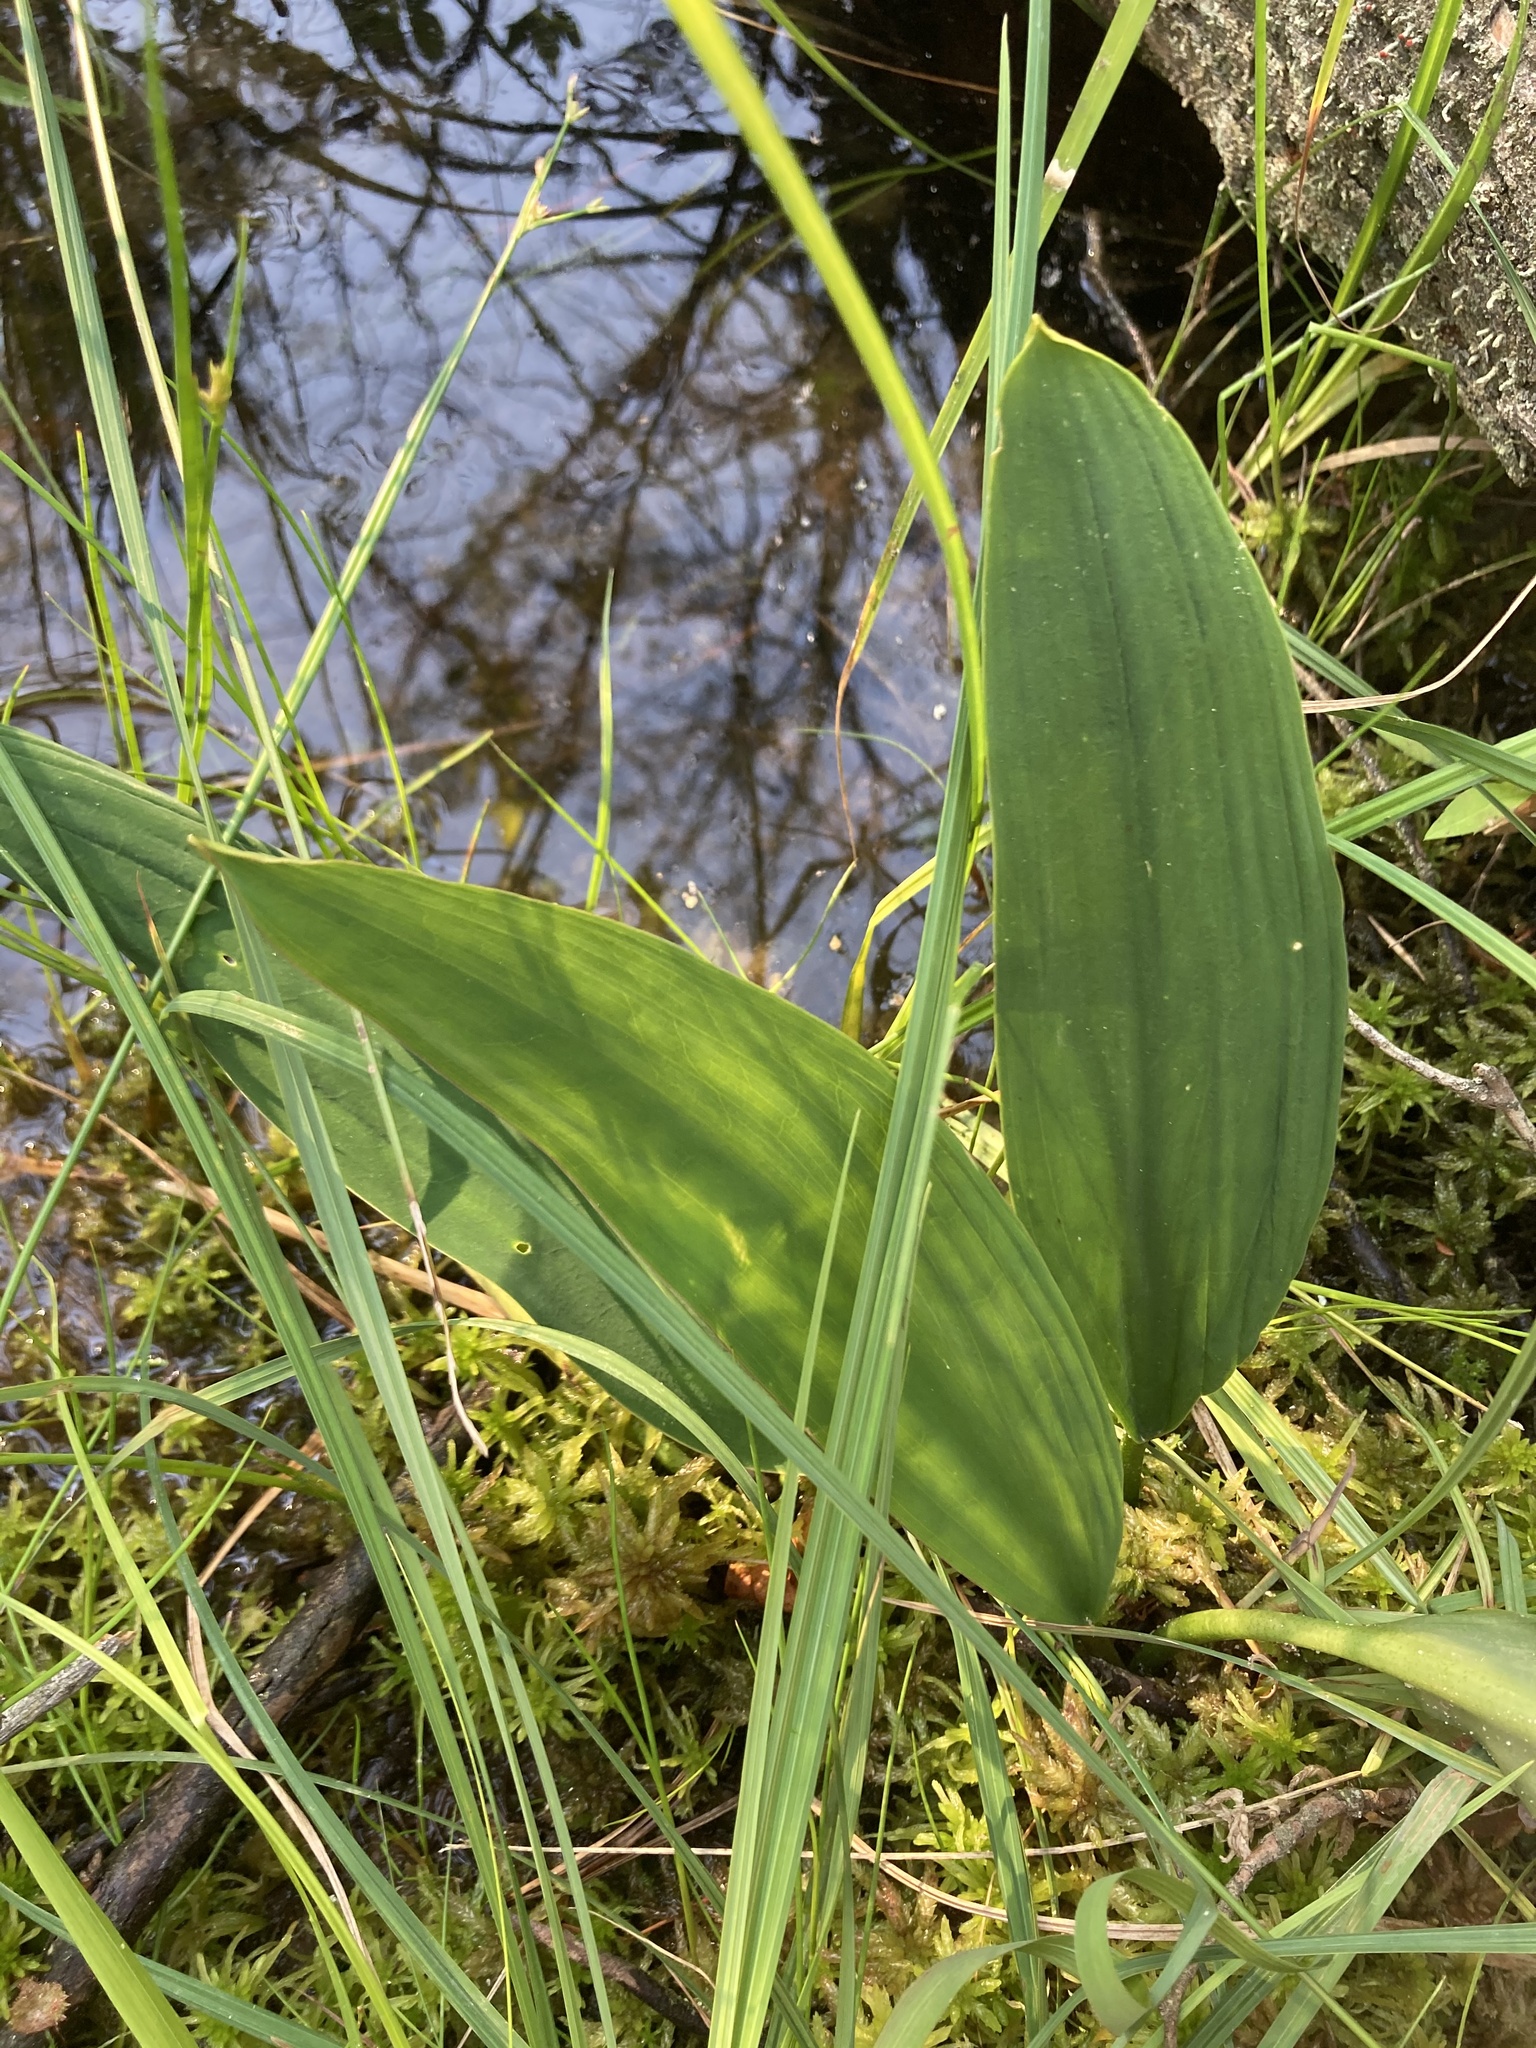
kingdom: Plantae
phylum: Tracheophyta
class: Liliopsida
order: Alismatales
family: Araceae
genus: Orontium
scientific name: Orontium aquaticum
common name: Golden-club
